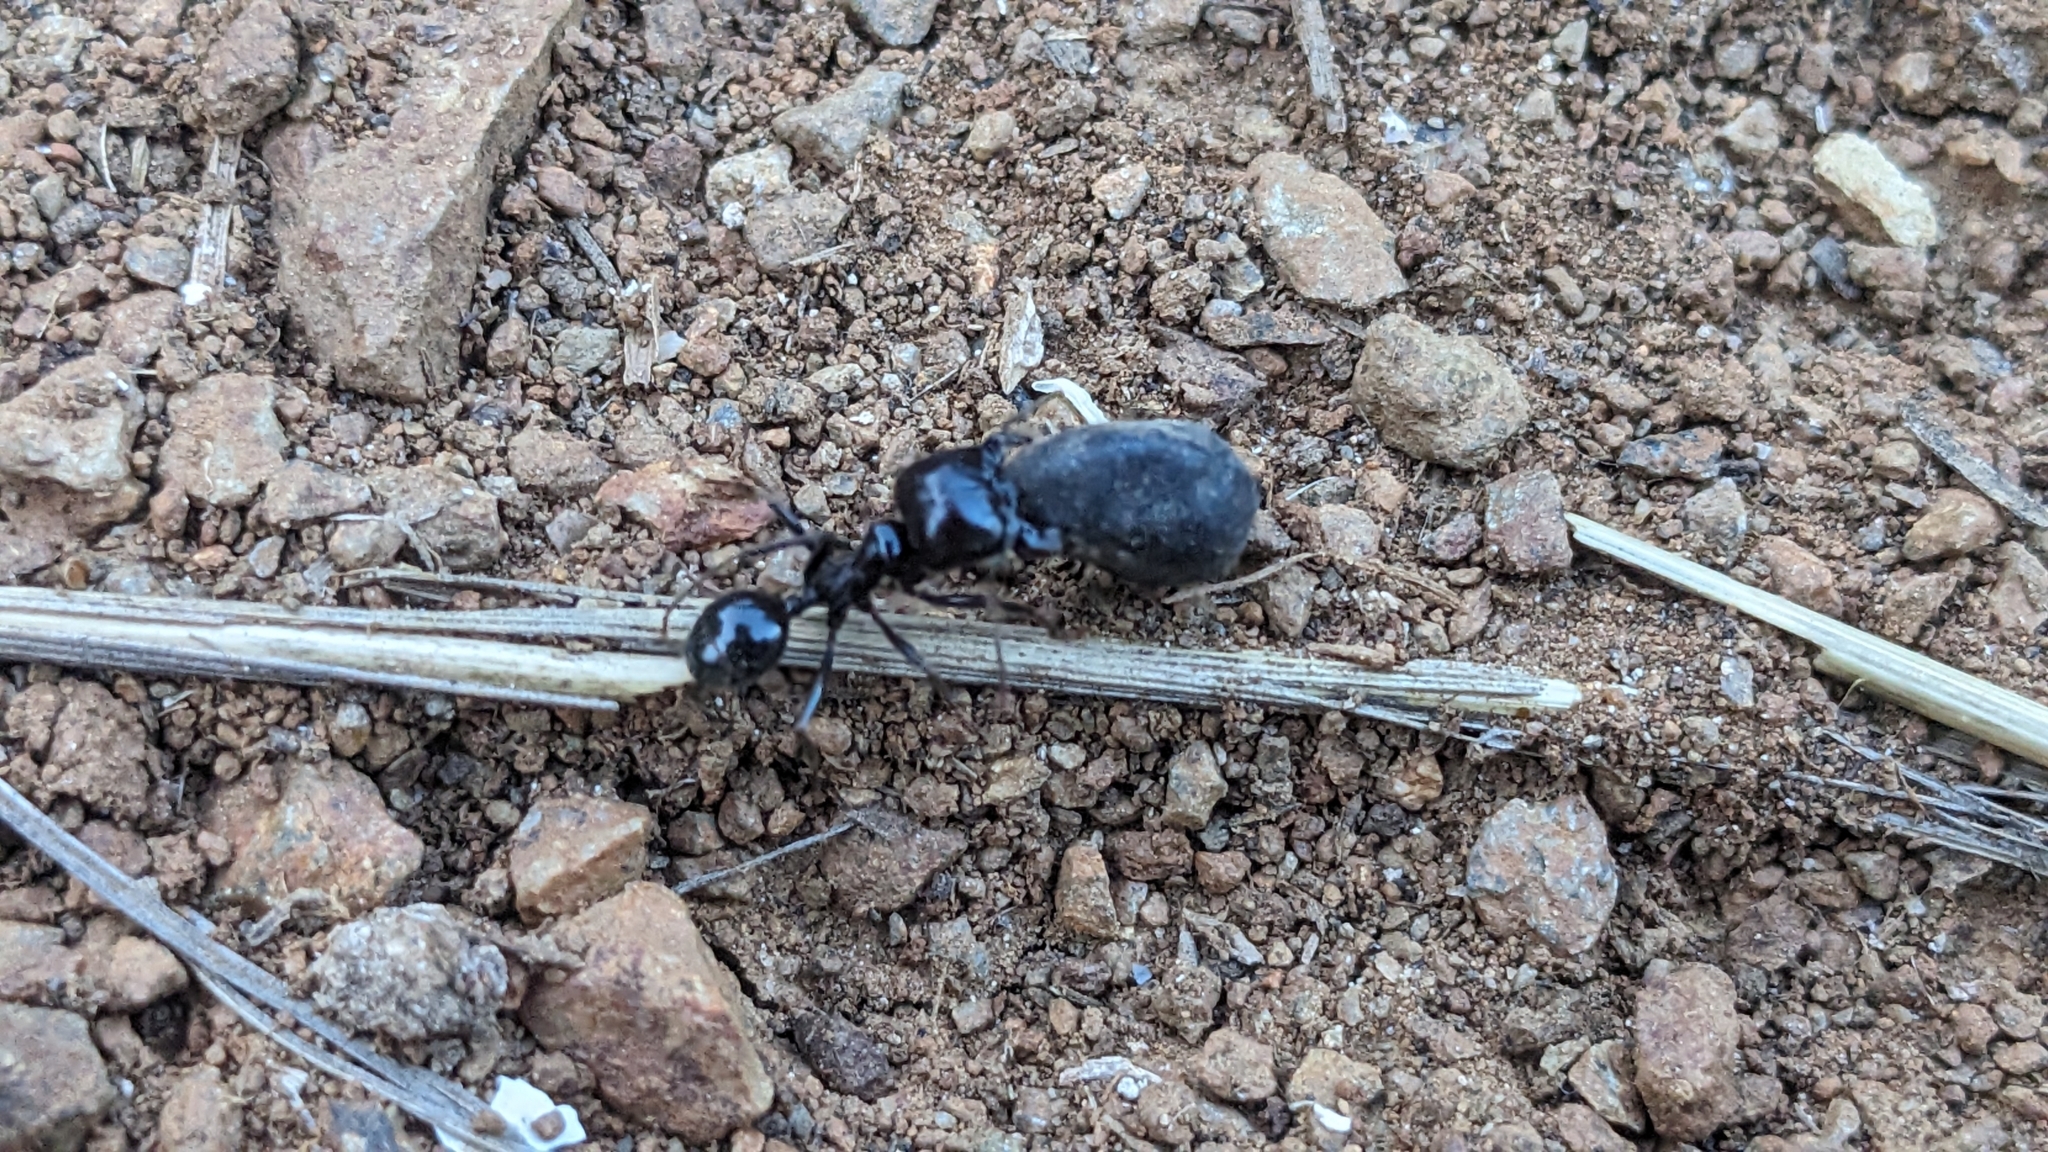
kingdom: Animalia
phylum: Arthropoda
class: Insecta
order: Hymenoptera
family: Formicidae
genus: Messor
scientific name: Messor barbarus
